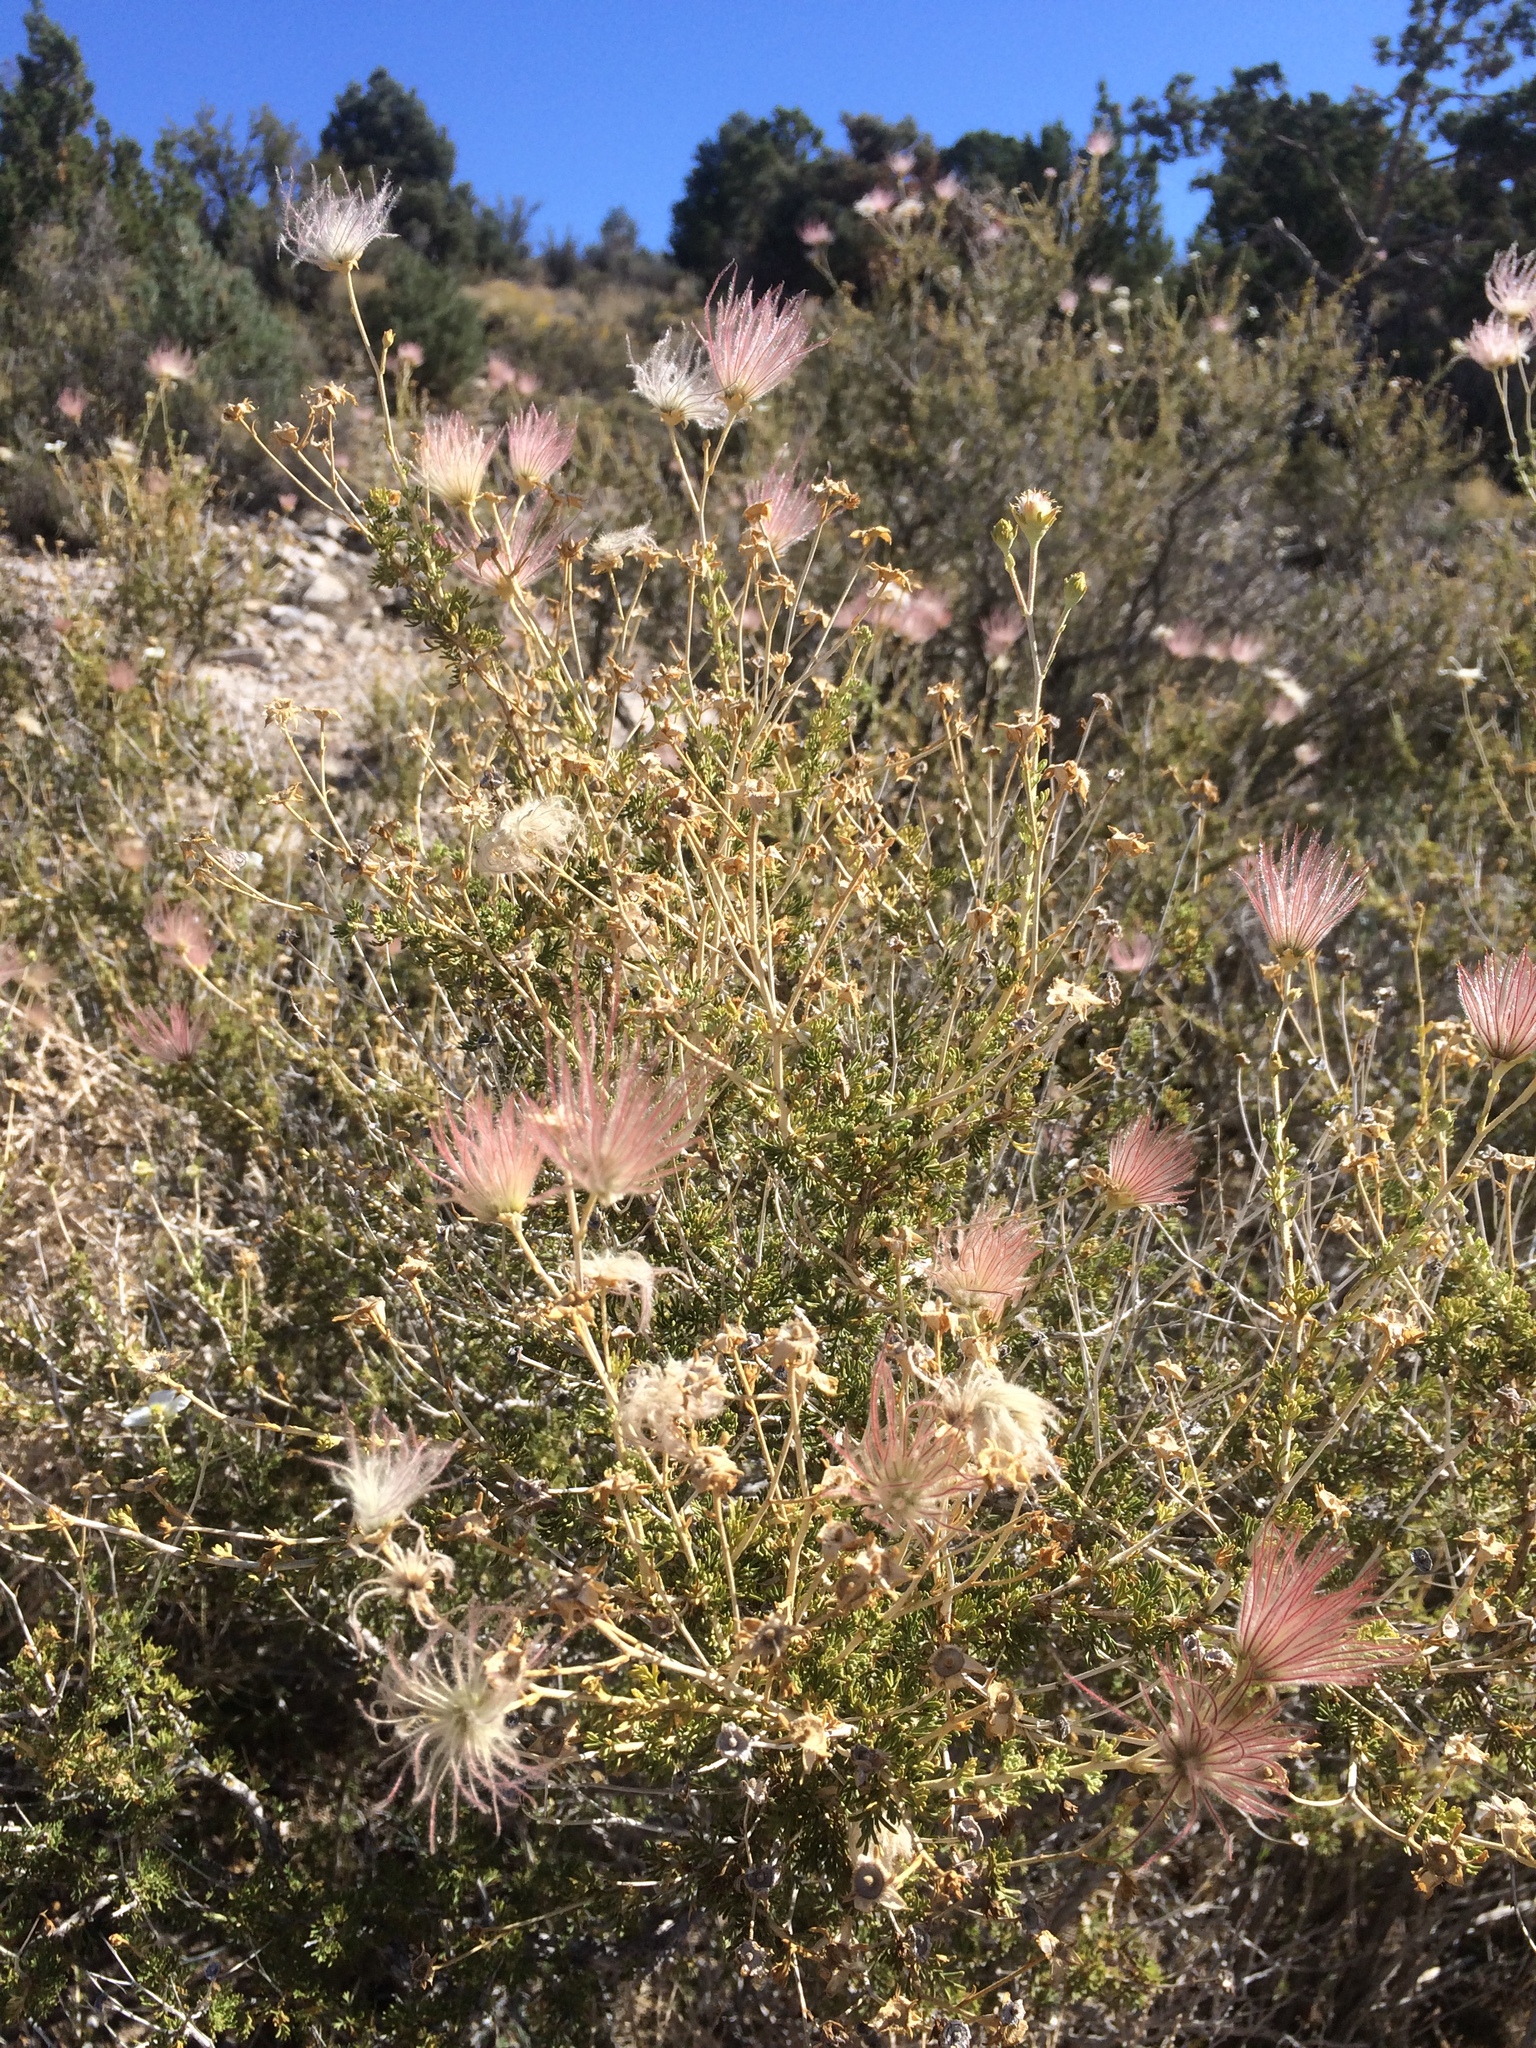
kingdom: Plantae
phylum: Tracheophyta
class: Magnoliopsida
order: Rosales
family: Rosaceae
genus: Fallugia
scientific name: Fallugia paradoxa
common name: Apache-plume
